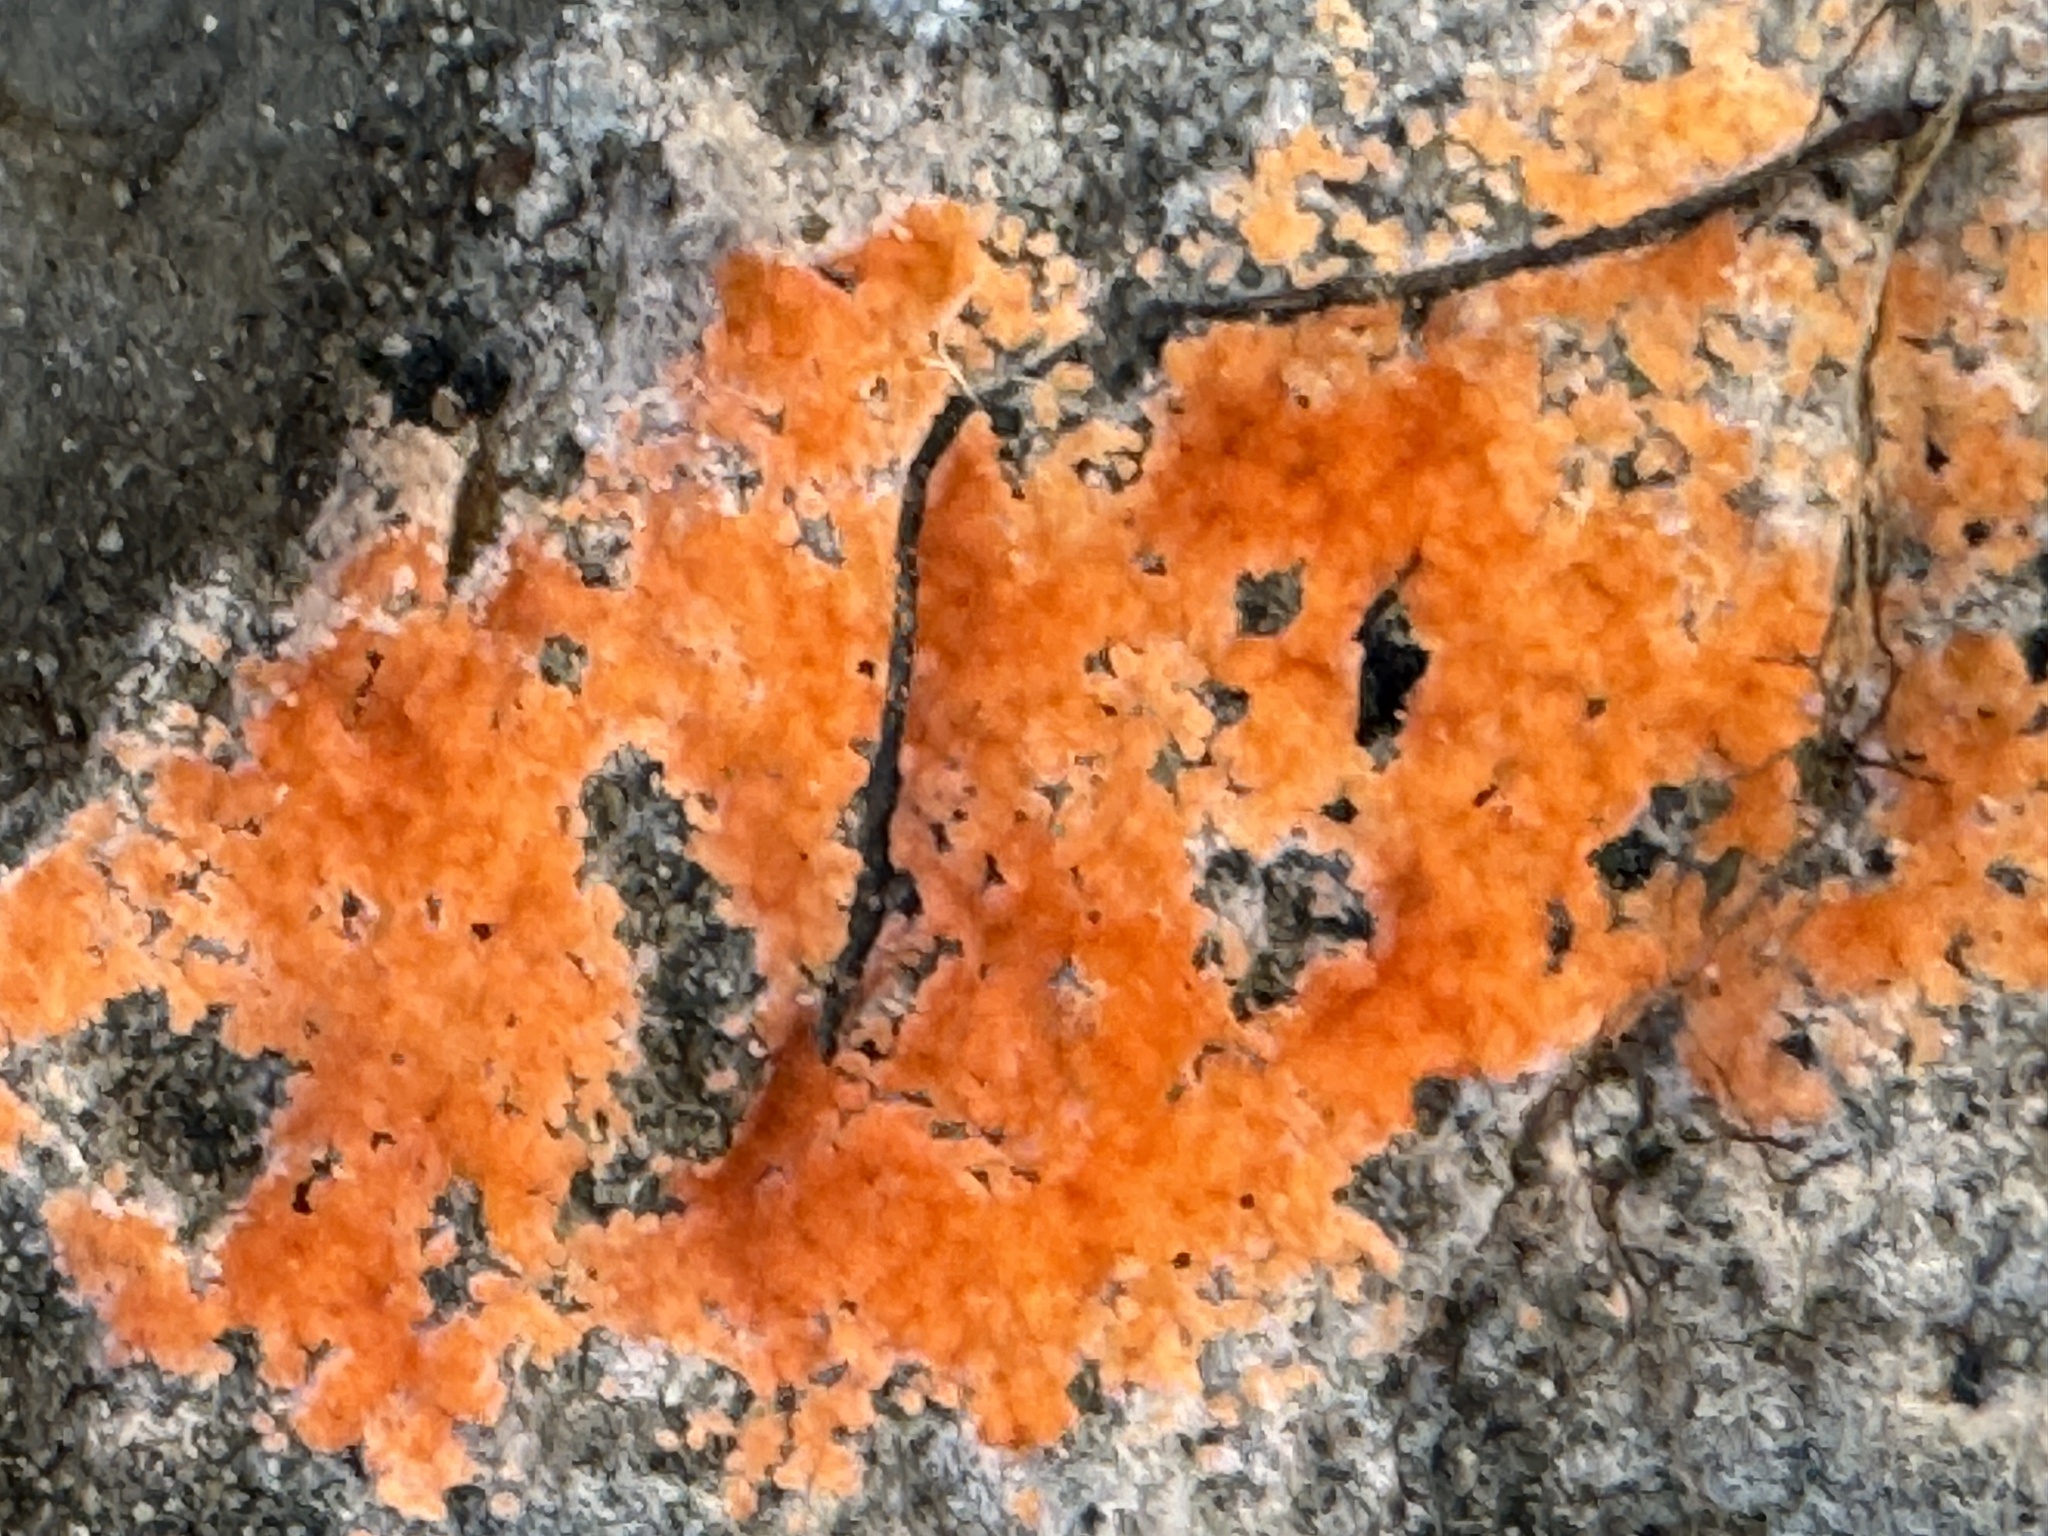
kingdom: Fungi
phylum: Ascomycota
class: Pezizomycetes
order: Pezizales
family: Pyronemataceae
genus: Pyronema
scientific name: Pyronema omphalodes
